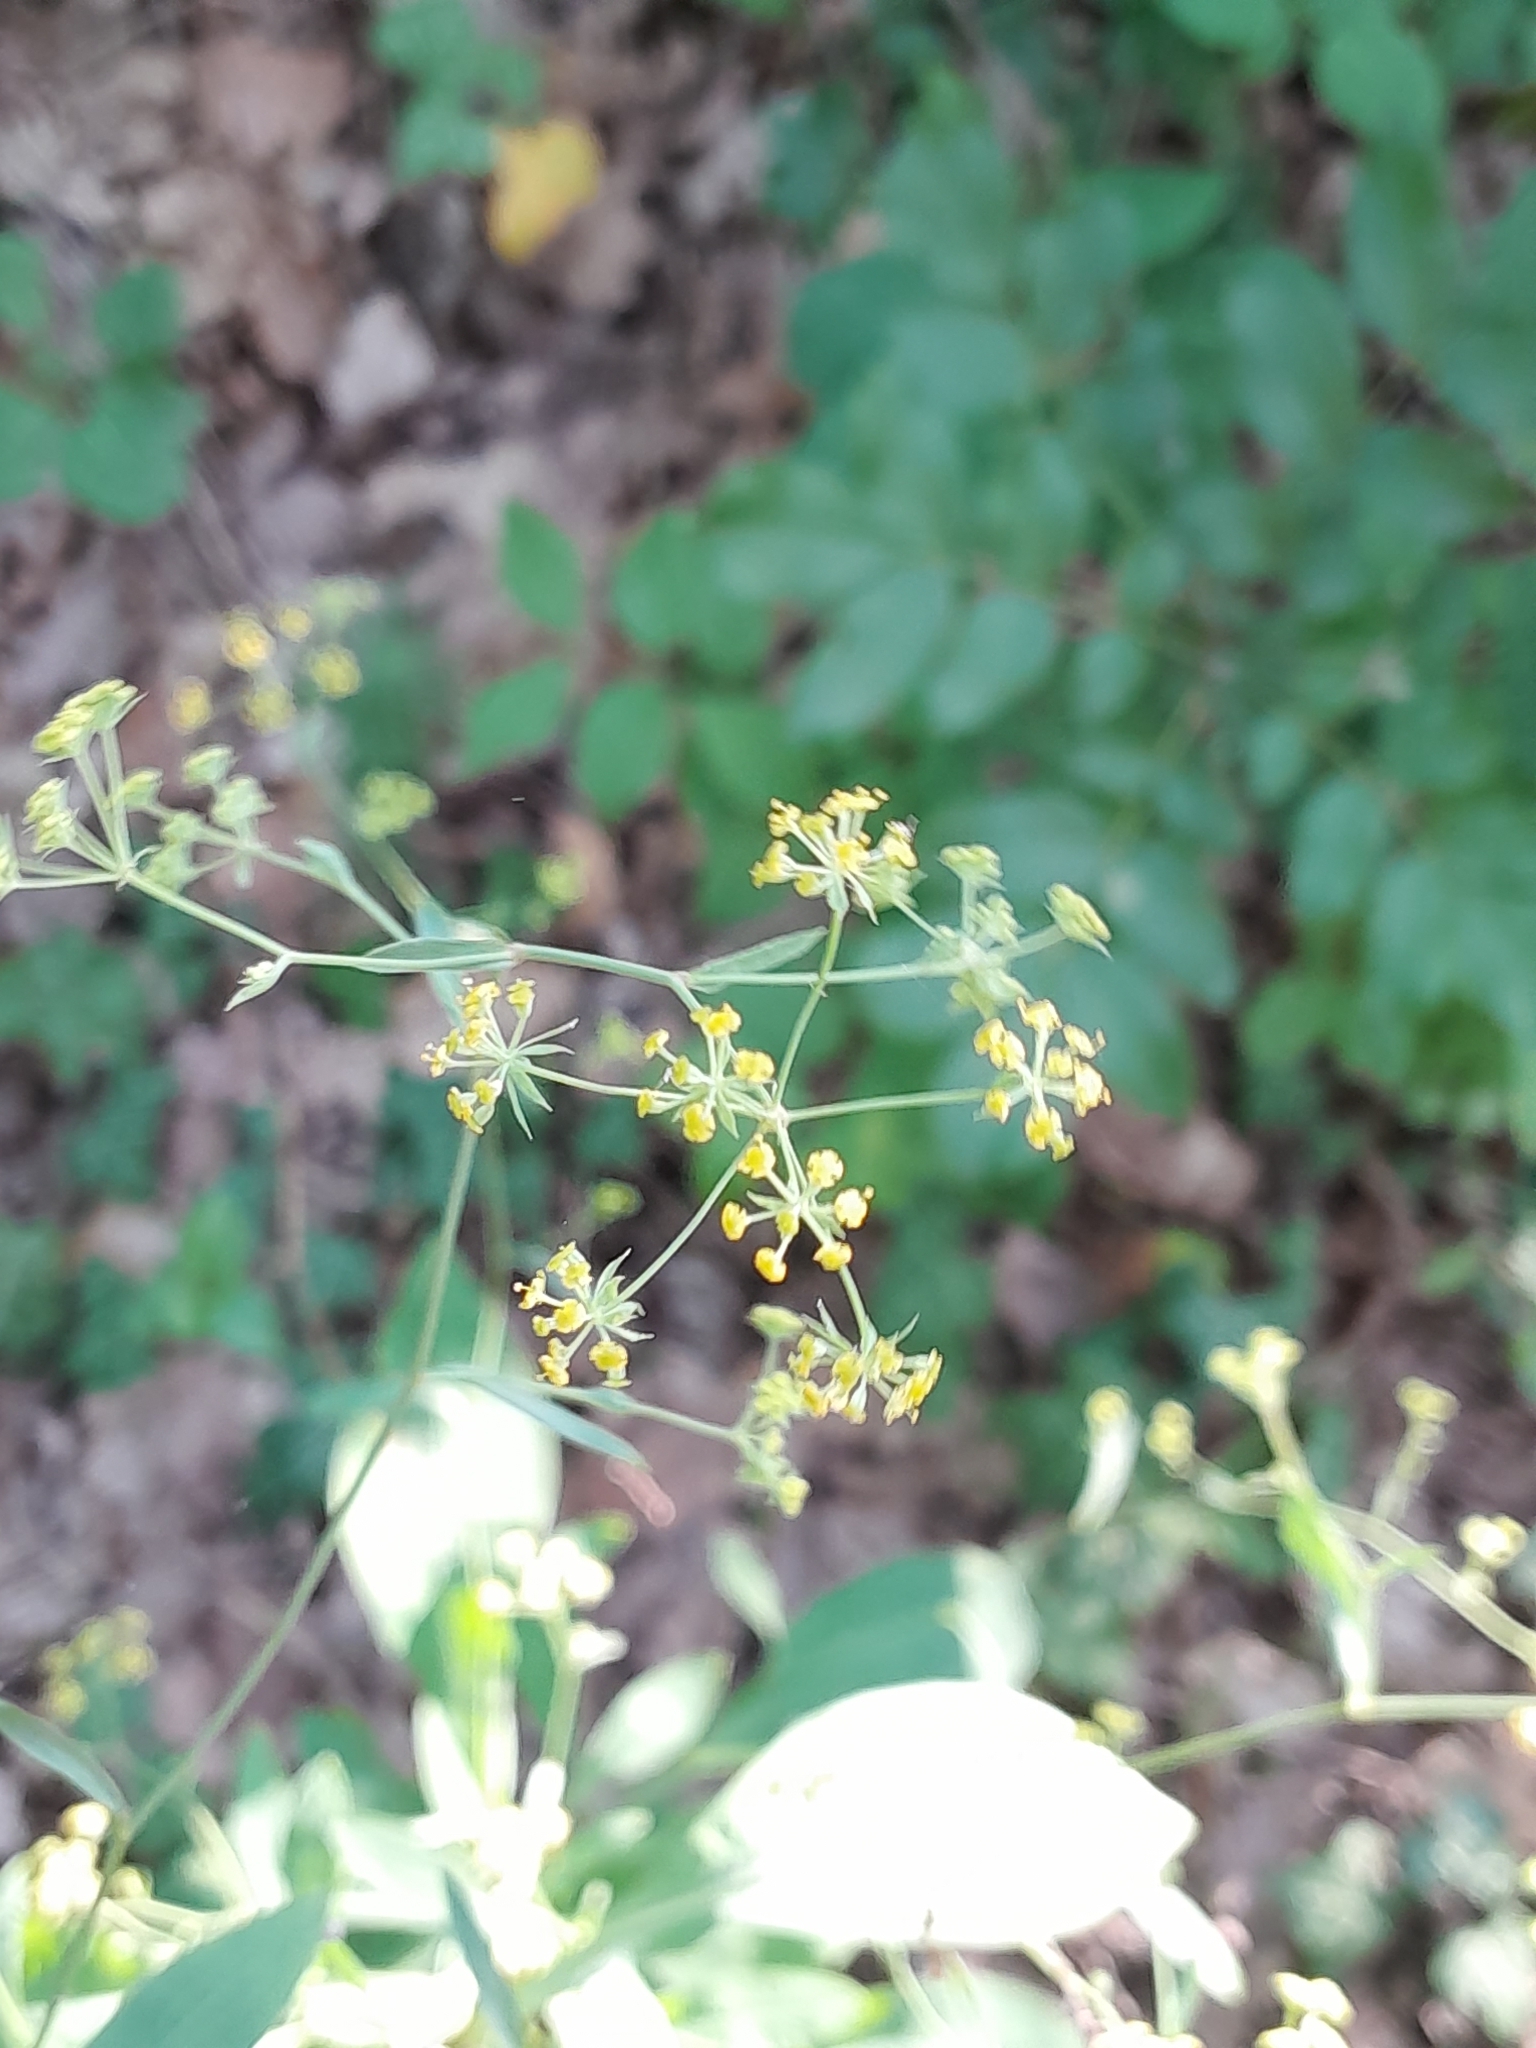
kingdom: Plantae
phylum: Tracheophyta
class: Magnoliopsida
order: Apiales
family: Apiaceae
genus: Bupleurum
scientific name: Bupleurum falcatum
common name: Sickle-leaved hare's-ear
